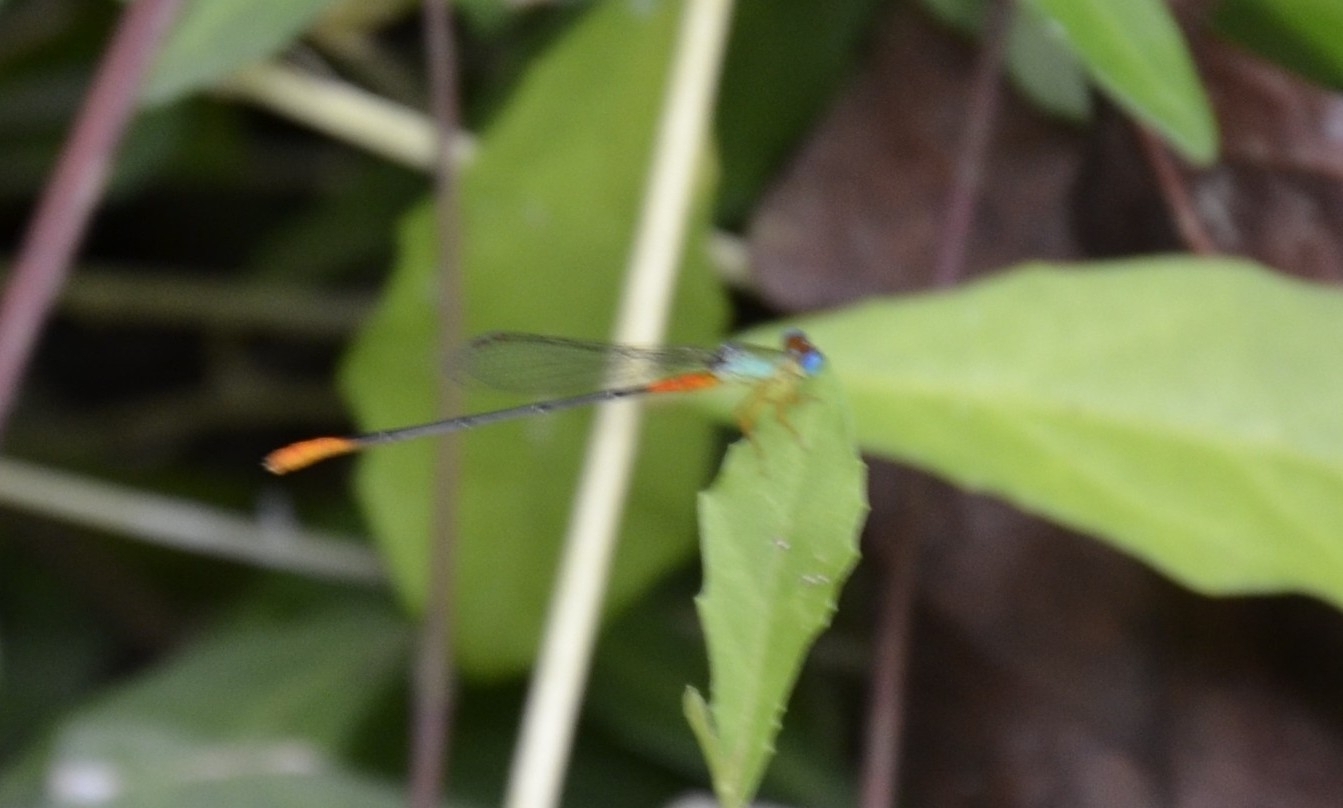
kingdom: Animalia
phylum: Arthropoda
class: Insecta
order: Odonata
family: Coenagrionidae
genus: Ceriagrion
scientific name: Ceriagrion cerinorubellum
